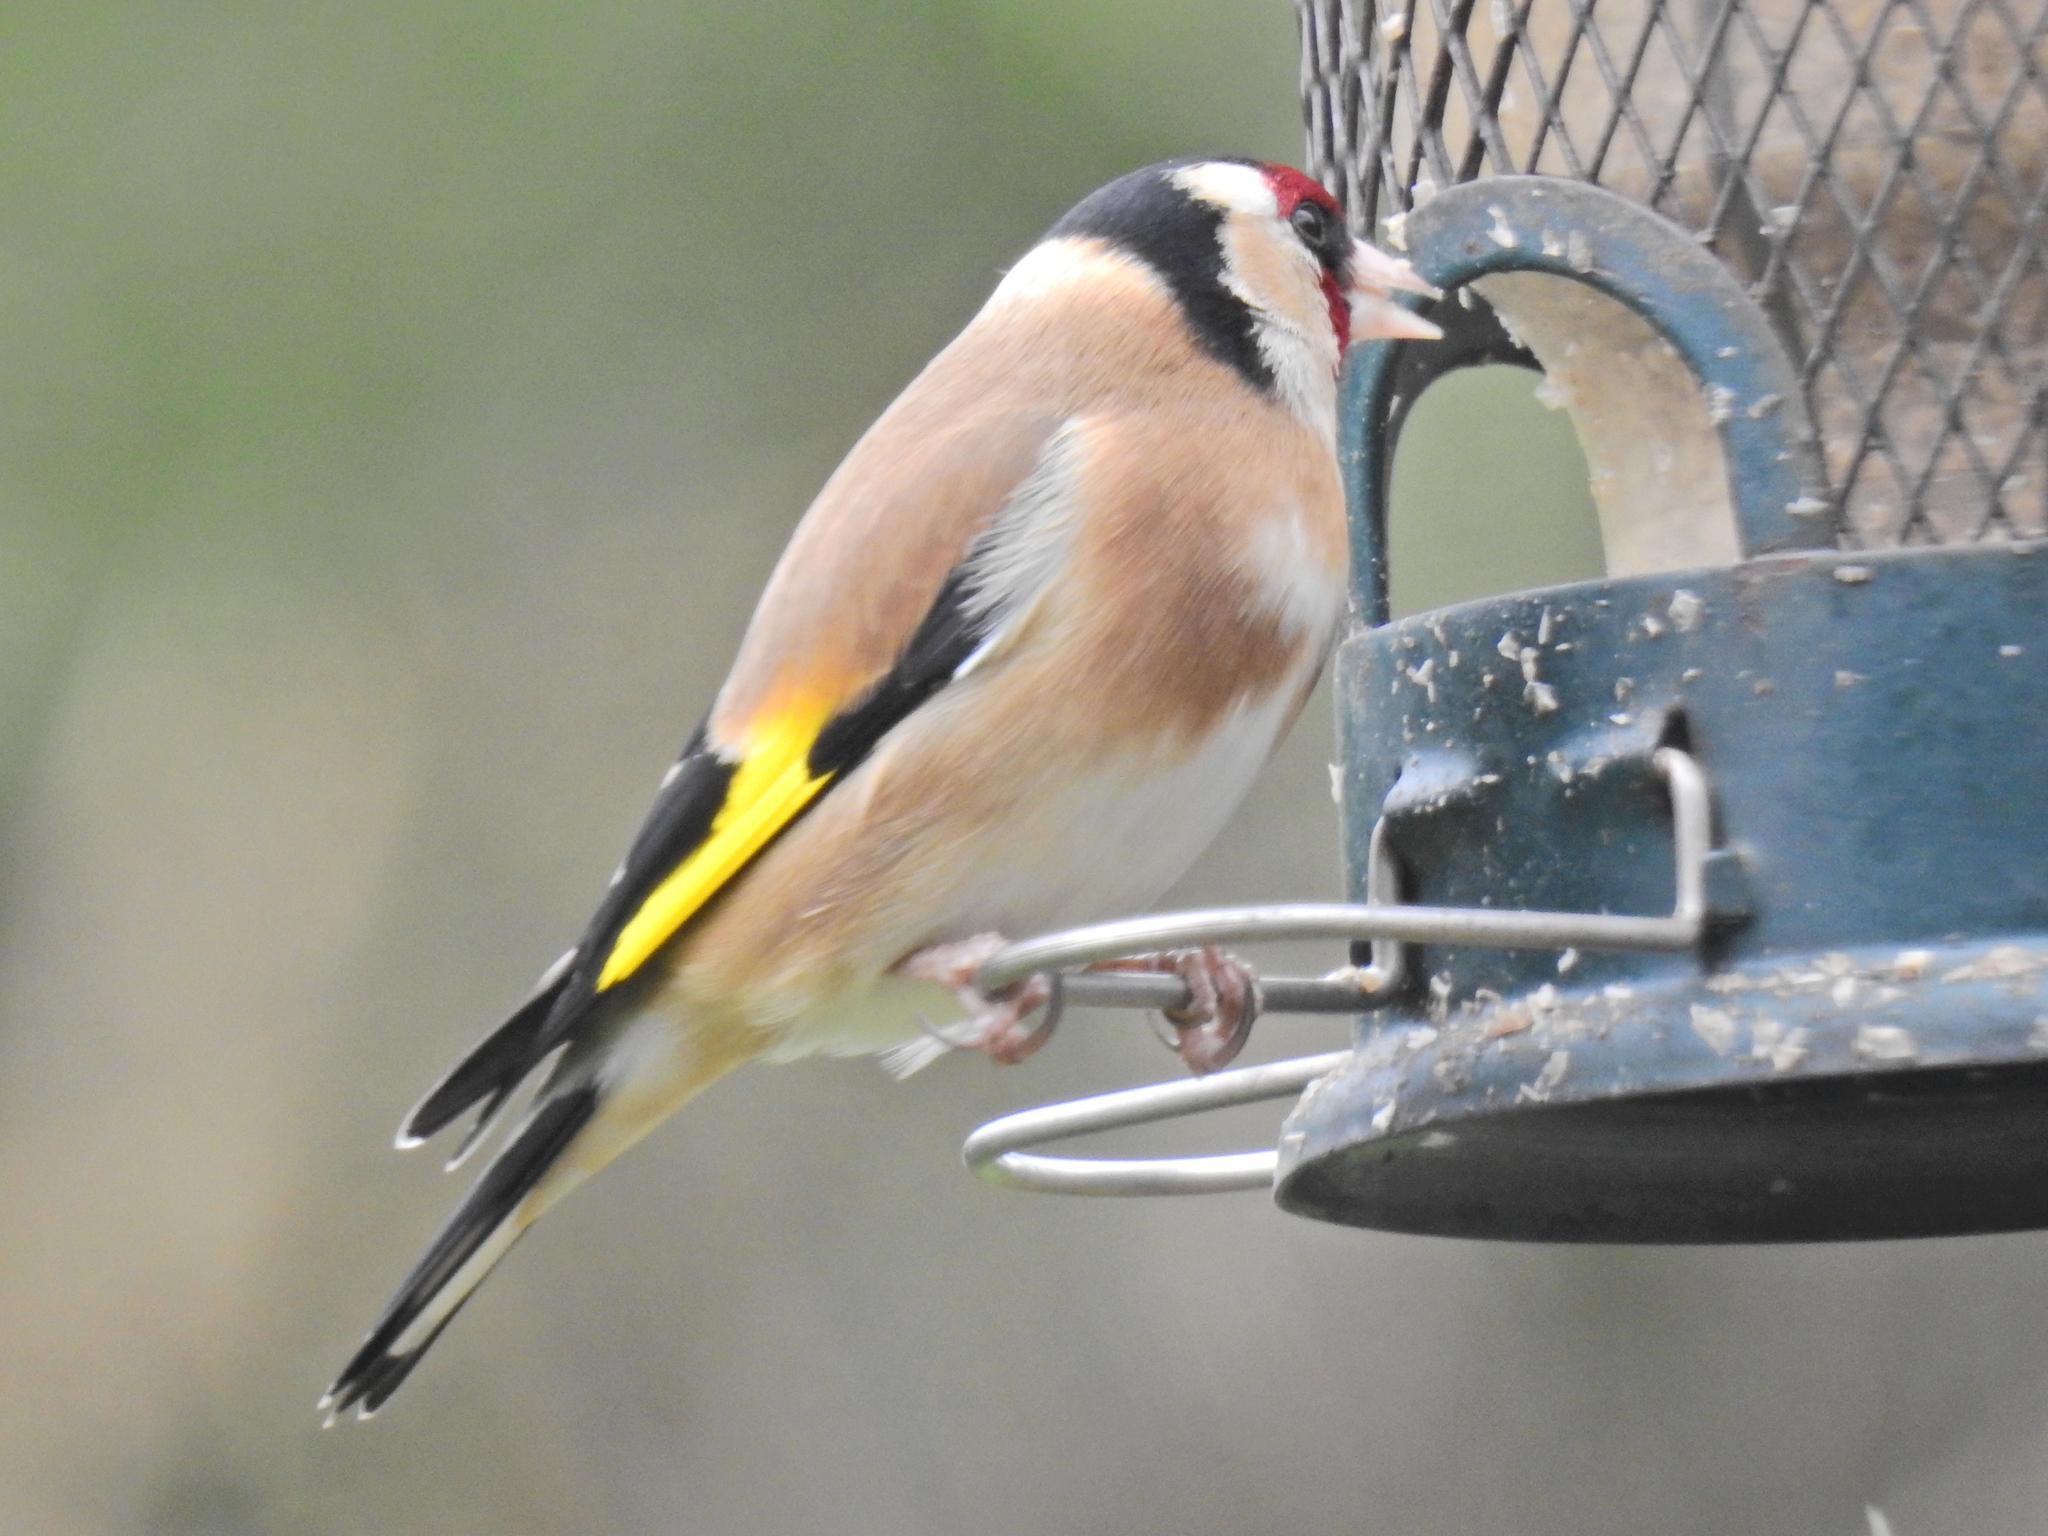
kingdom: Animalia
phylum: Chordata
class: Aves
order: Passeriformes
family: Fringillidae
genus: Carduelis
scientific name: Carduelis carduelis
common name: European goldfinch
